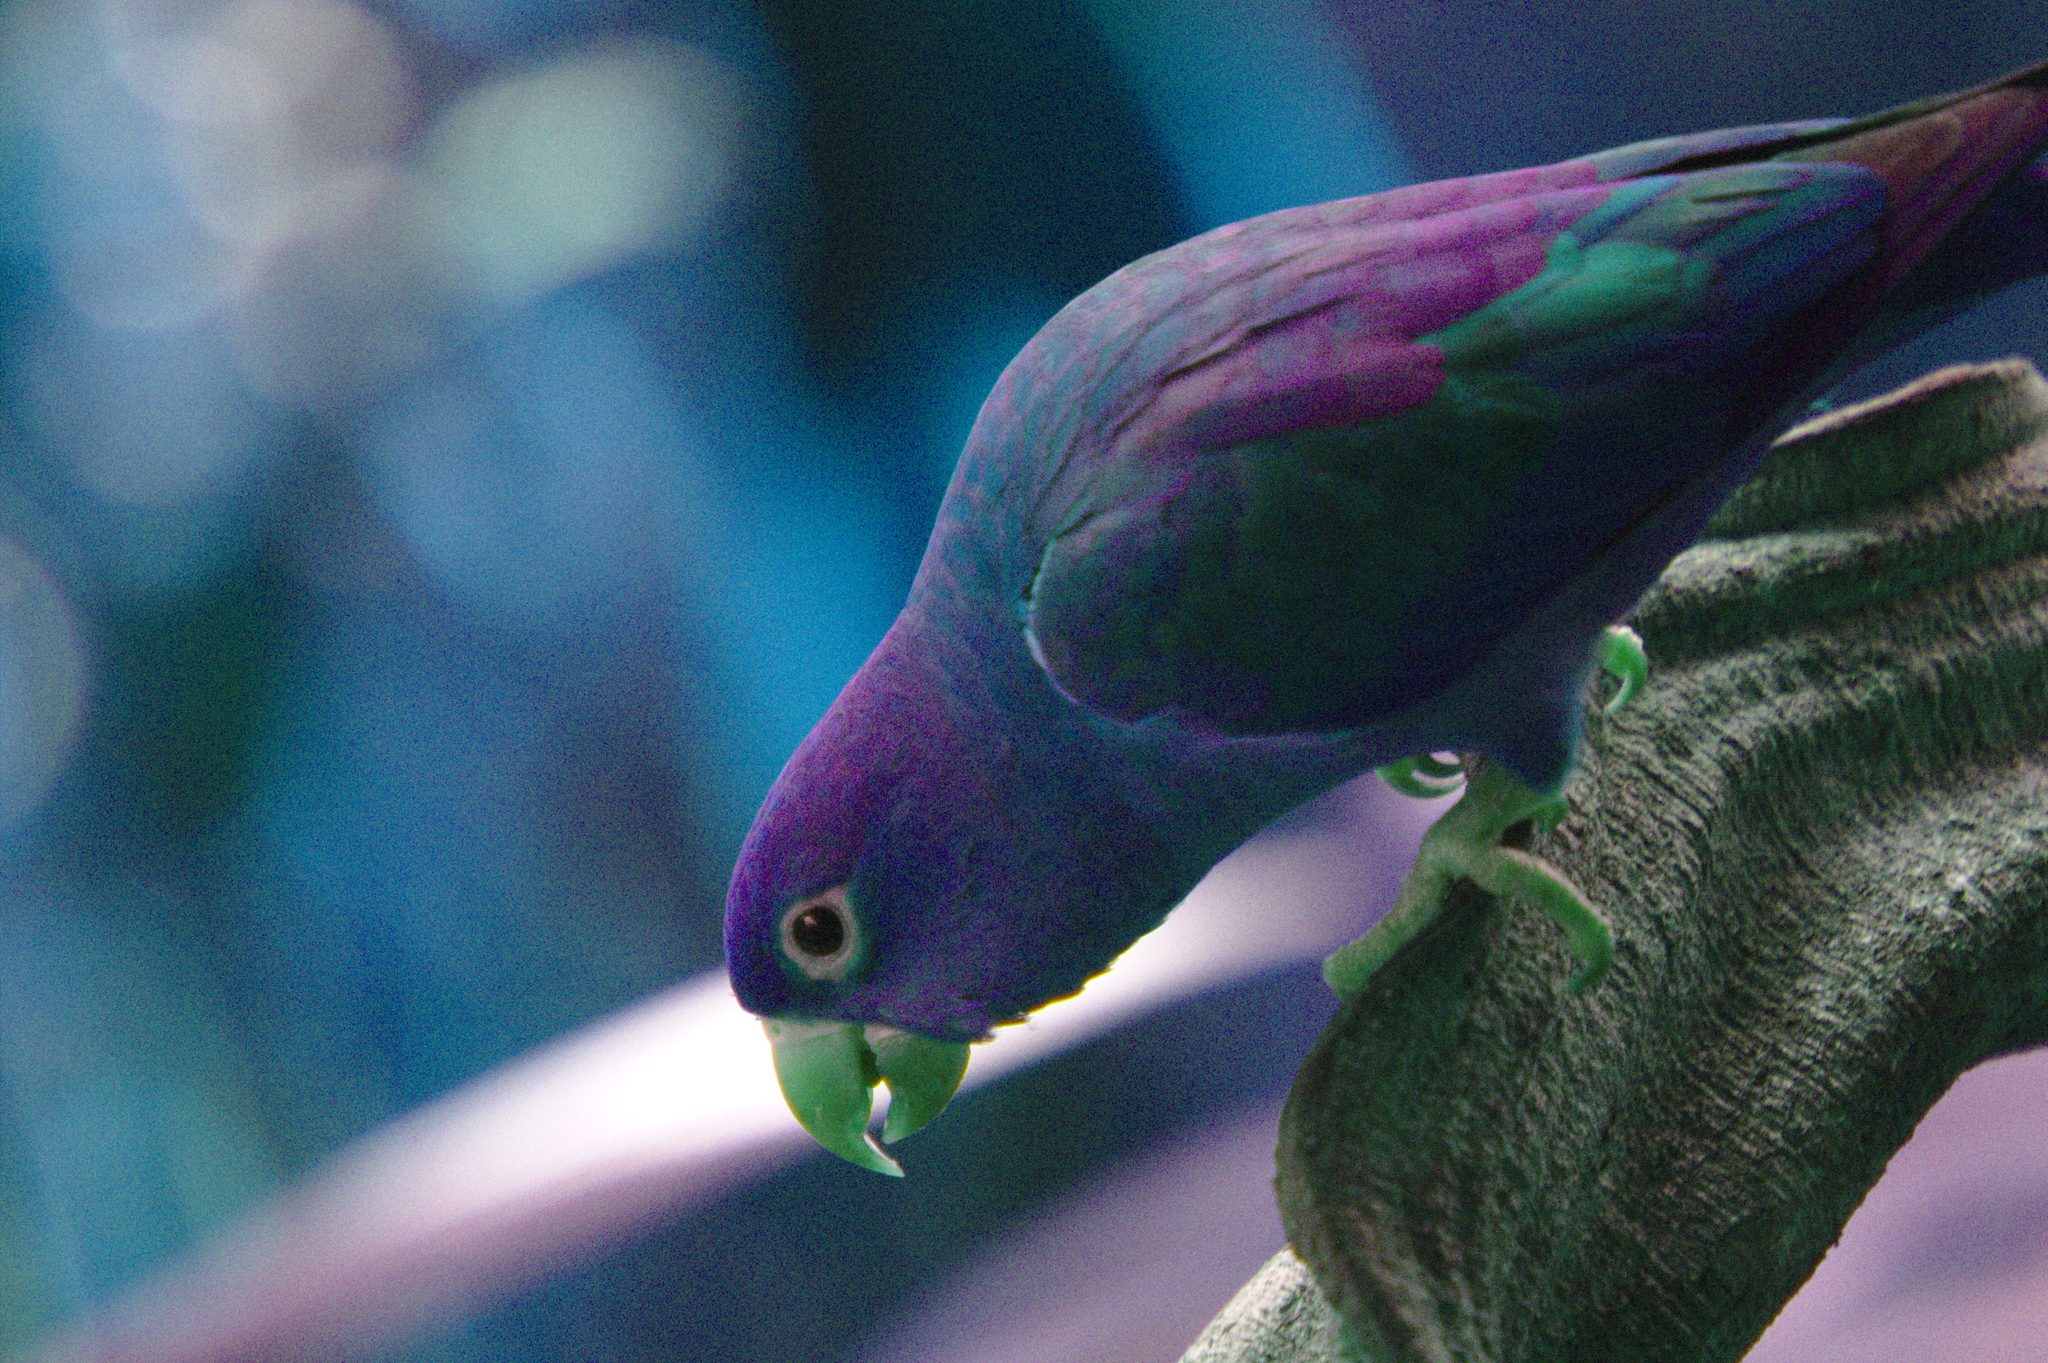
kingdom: Animalia
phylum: Chordata
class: Aves
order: Psittaciformes
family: Psittacidae
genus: Brotogeris
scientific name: Brotogeris jugularis
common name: Orange-chinned parakeet
